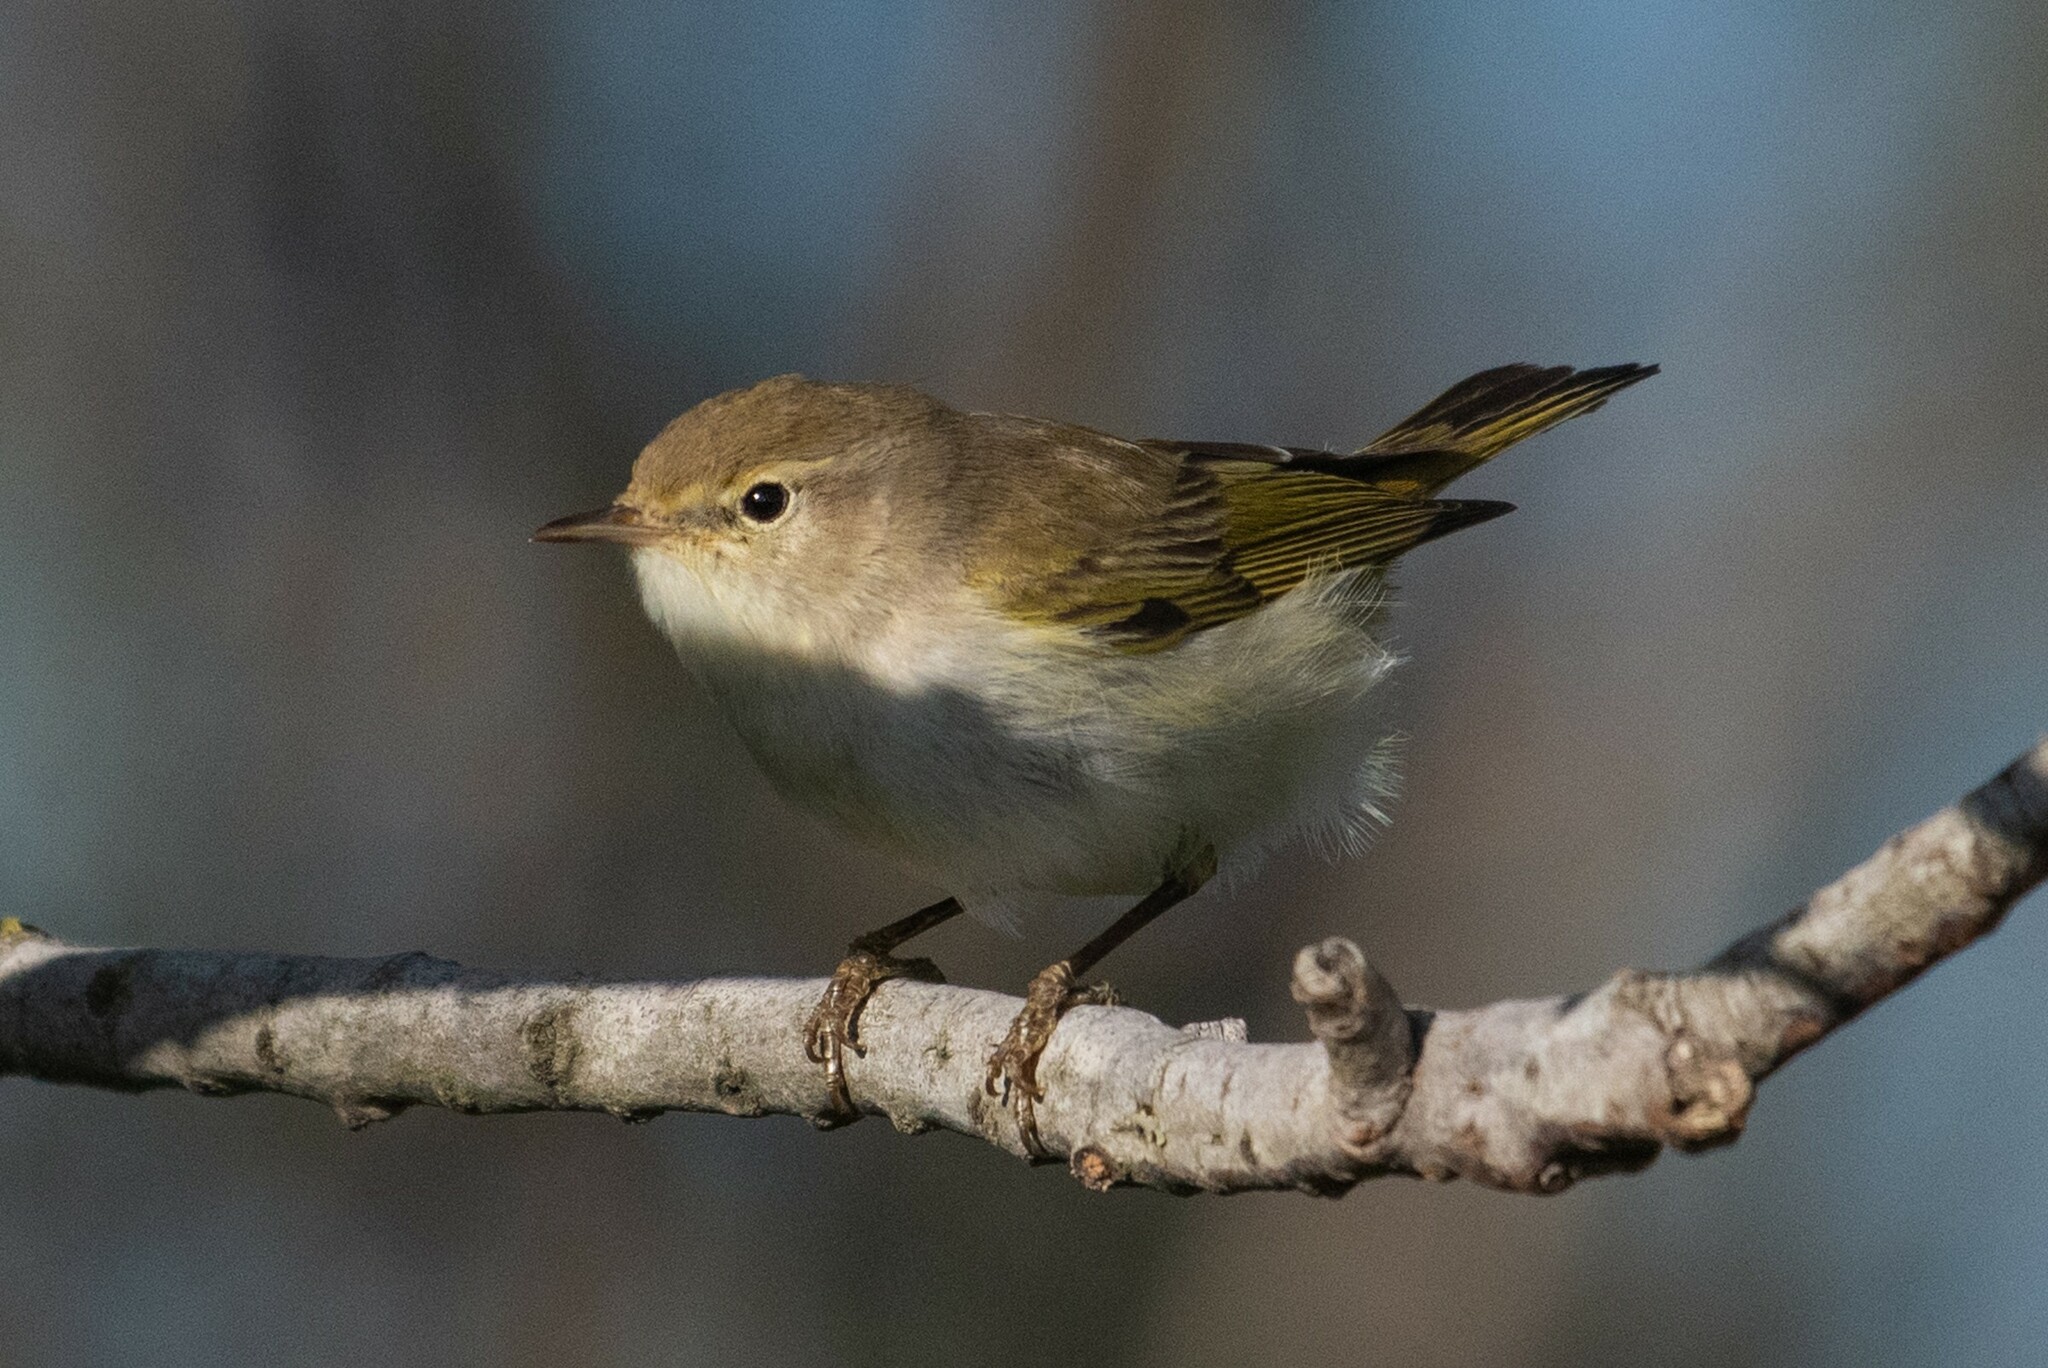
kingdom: Animalia
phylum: Chordata
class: Aves
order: Passeriformes
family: Phylloscopidae
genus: Phylloscopus
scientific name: Phylloscopus bonelli
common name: Western bonelli's warbler
